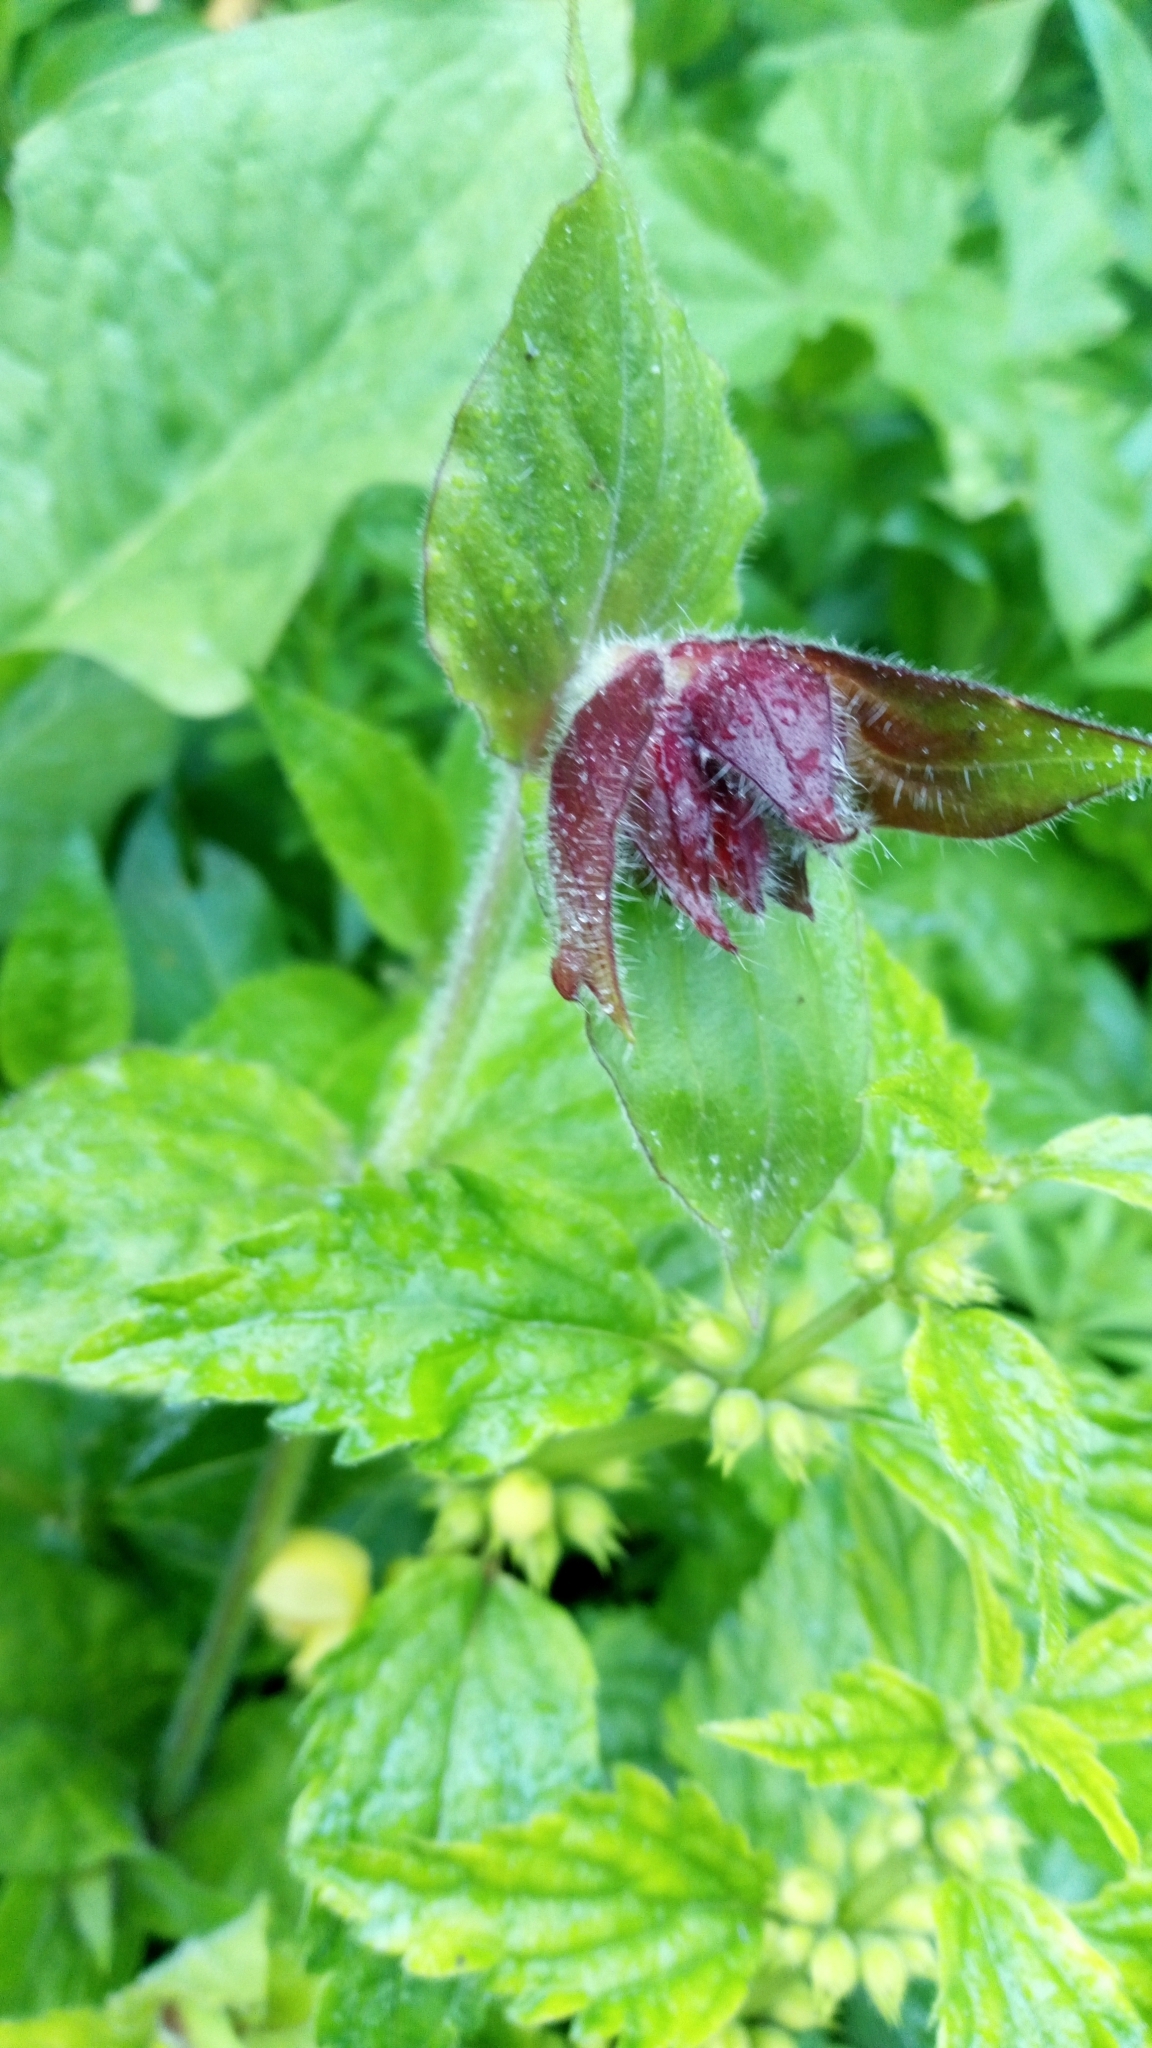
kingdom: Plantae
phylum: Tracheophyta
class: Magnoliopsida
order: Caryophyllales
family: Caryophyllaceae
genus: Silene
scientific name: Silene dioica
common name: Red campion
